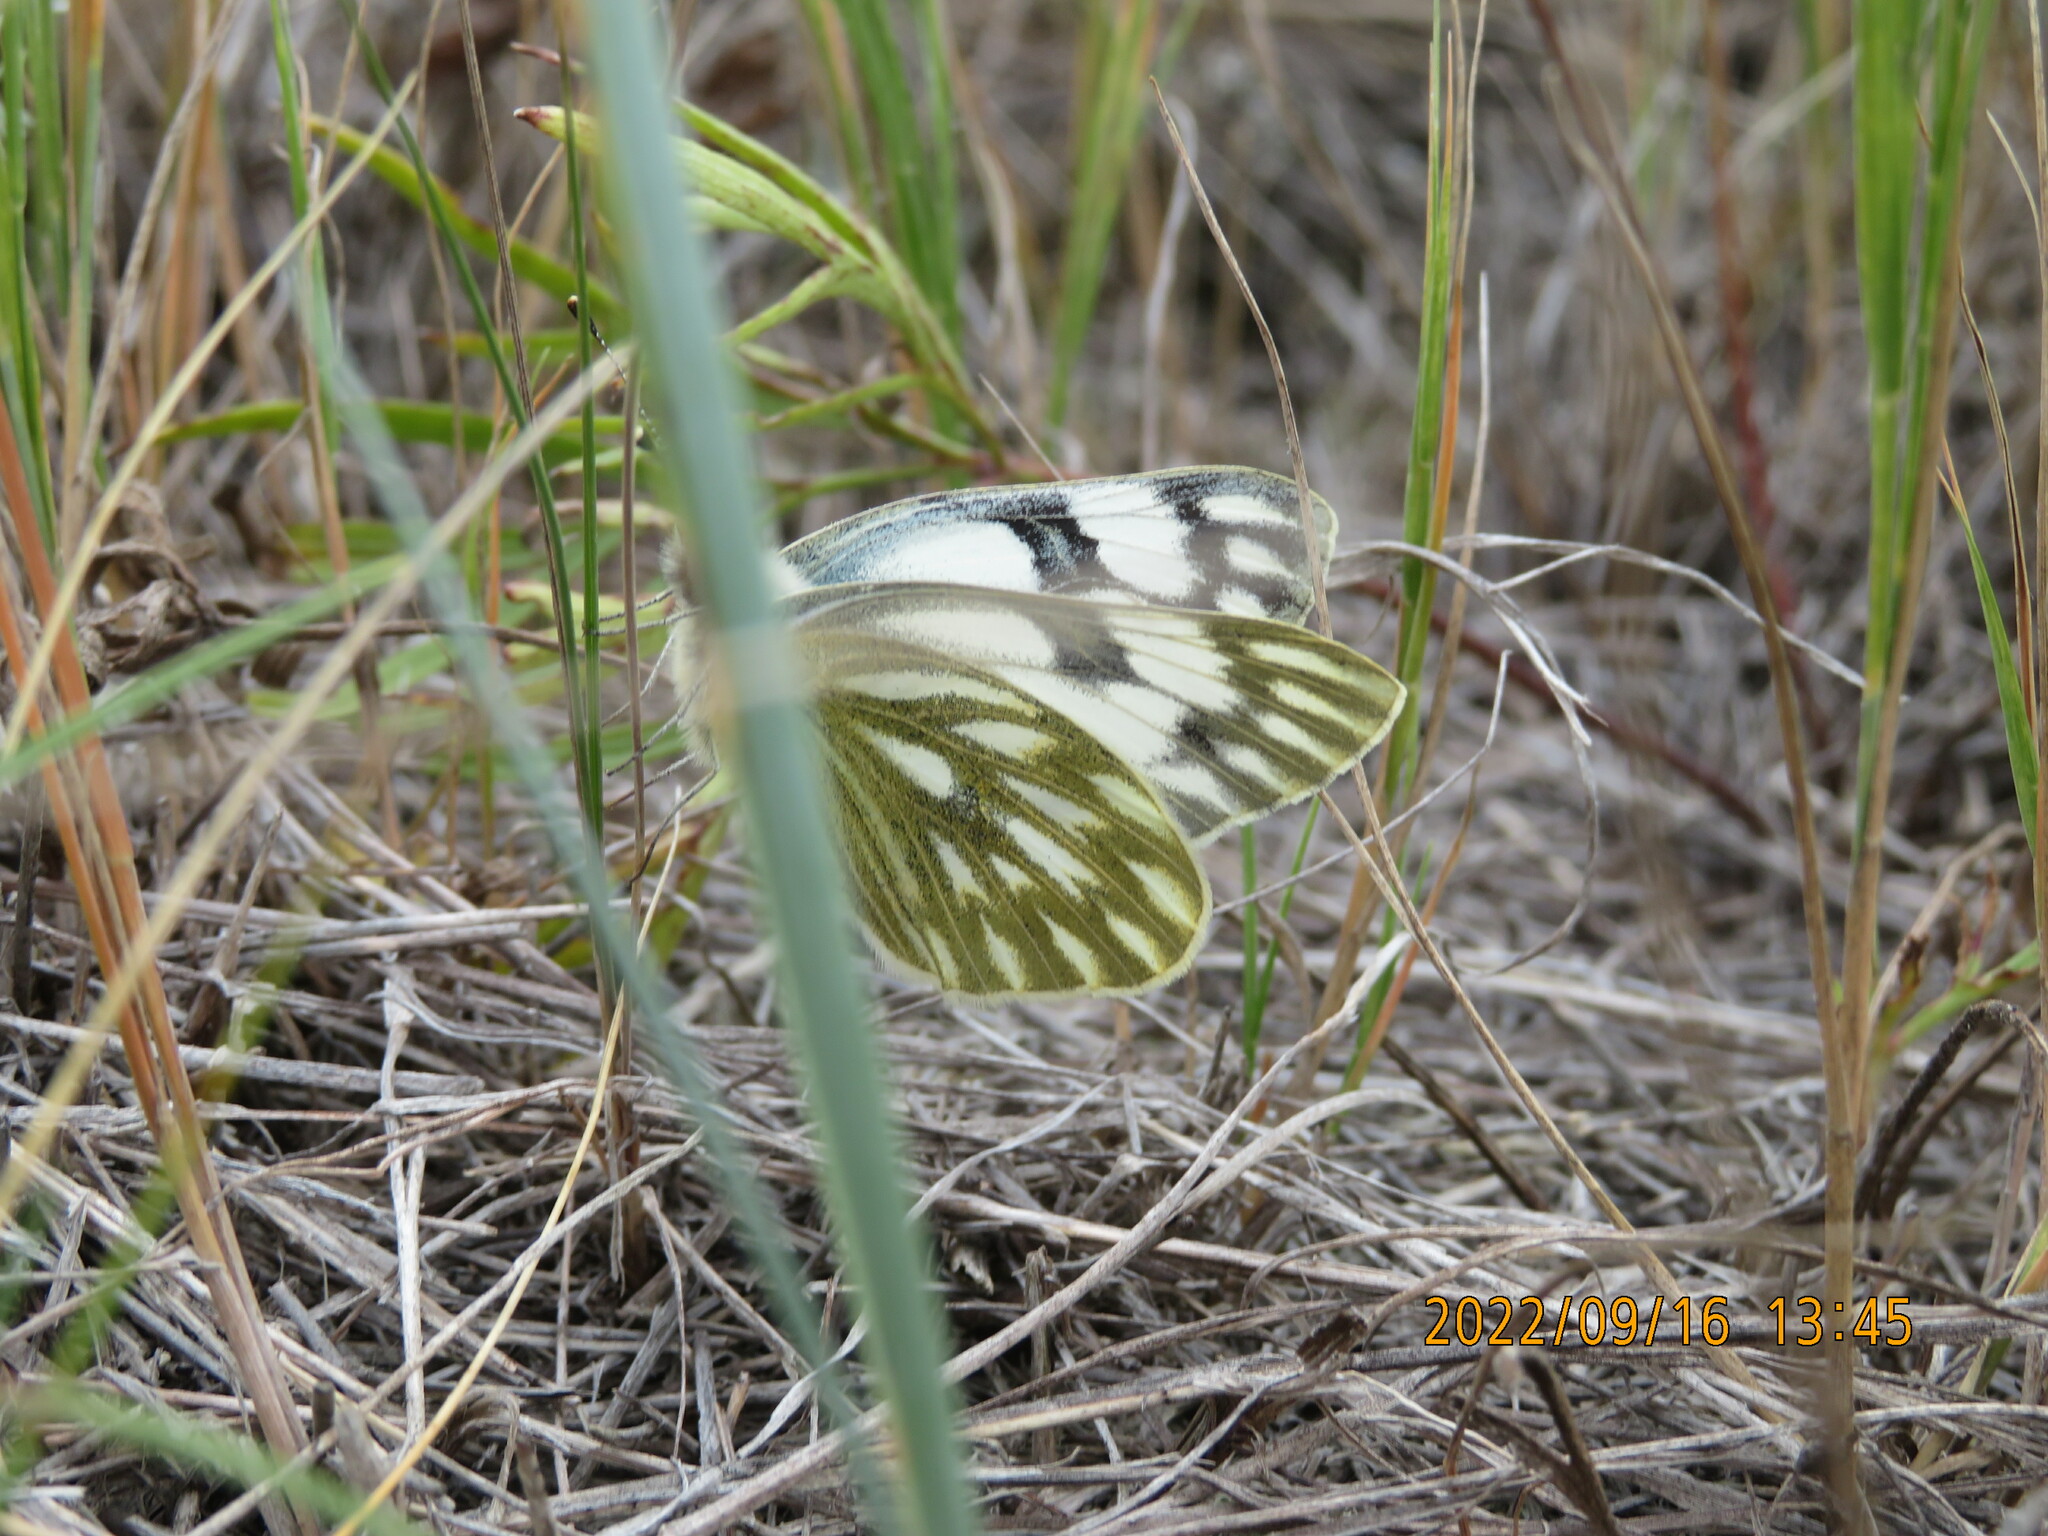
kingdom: Animalia
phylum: Arthropoda
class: Insecta
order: Lepidoptera
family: Pieridae
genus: Pontia
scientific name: Pontia occidentalis
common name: Western white
